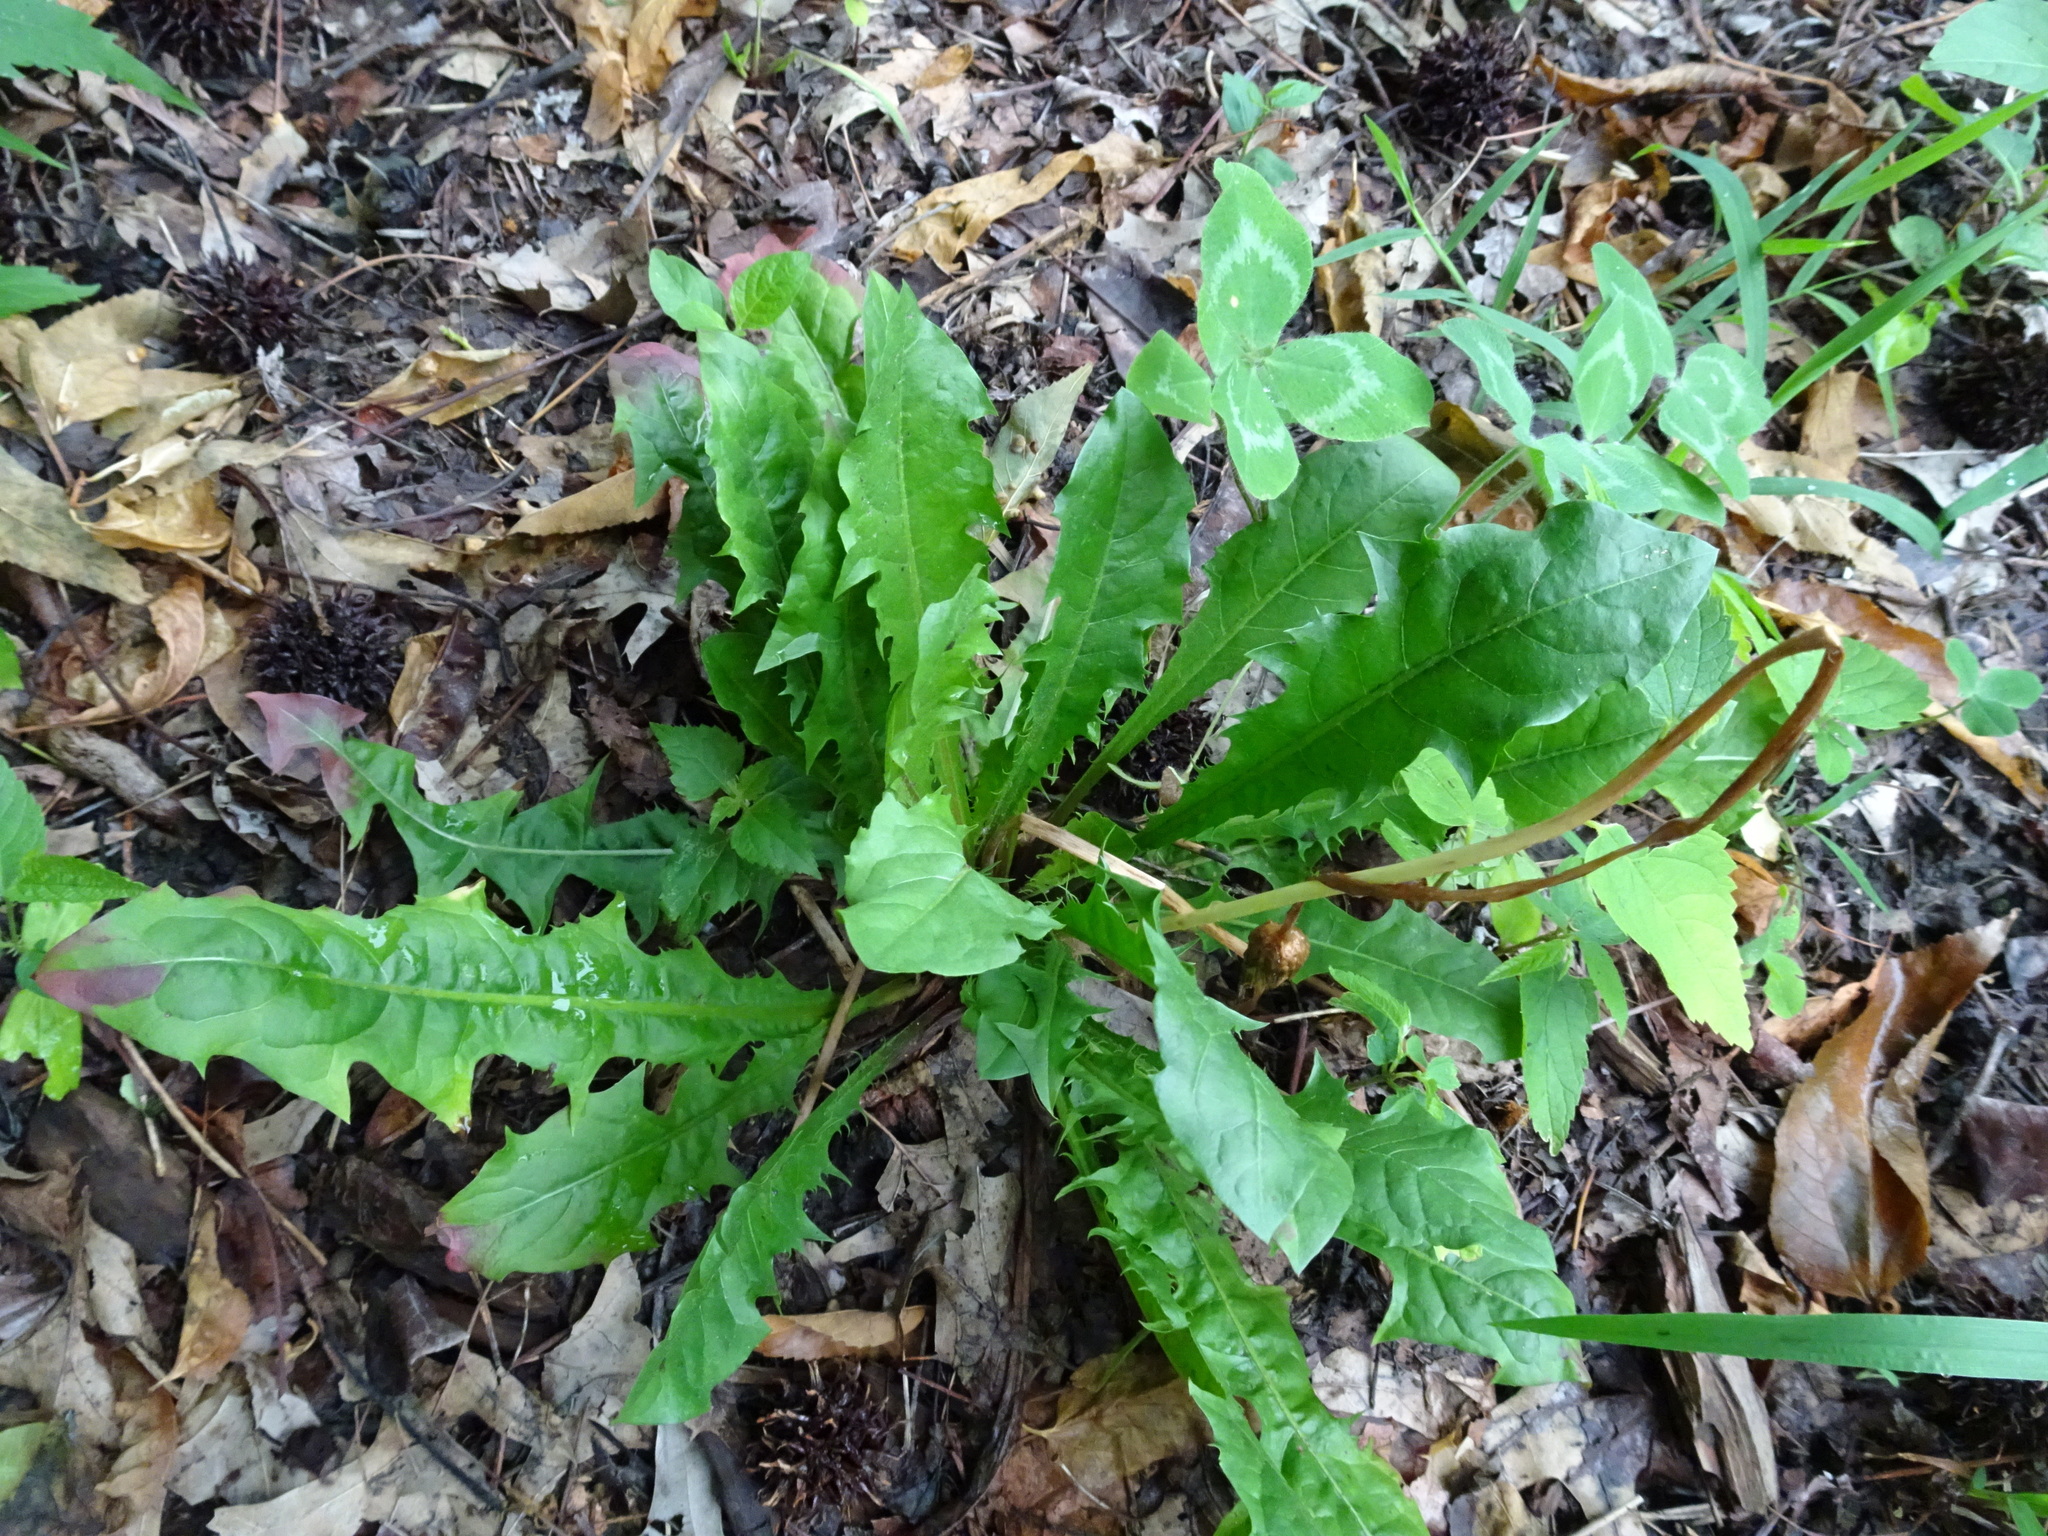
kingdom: Plantae
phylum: Tracheophyta
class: Magnoliopsida
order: Asterales
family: Asteraceae
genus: Taraxacum
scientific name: Taraxacum officinale
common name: Common dandelion
